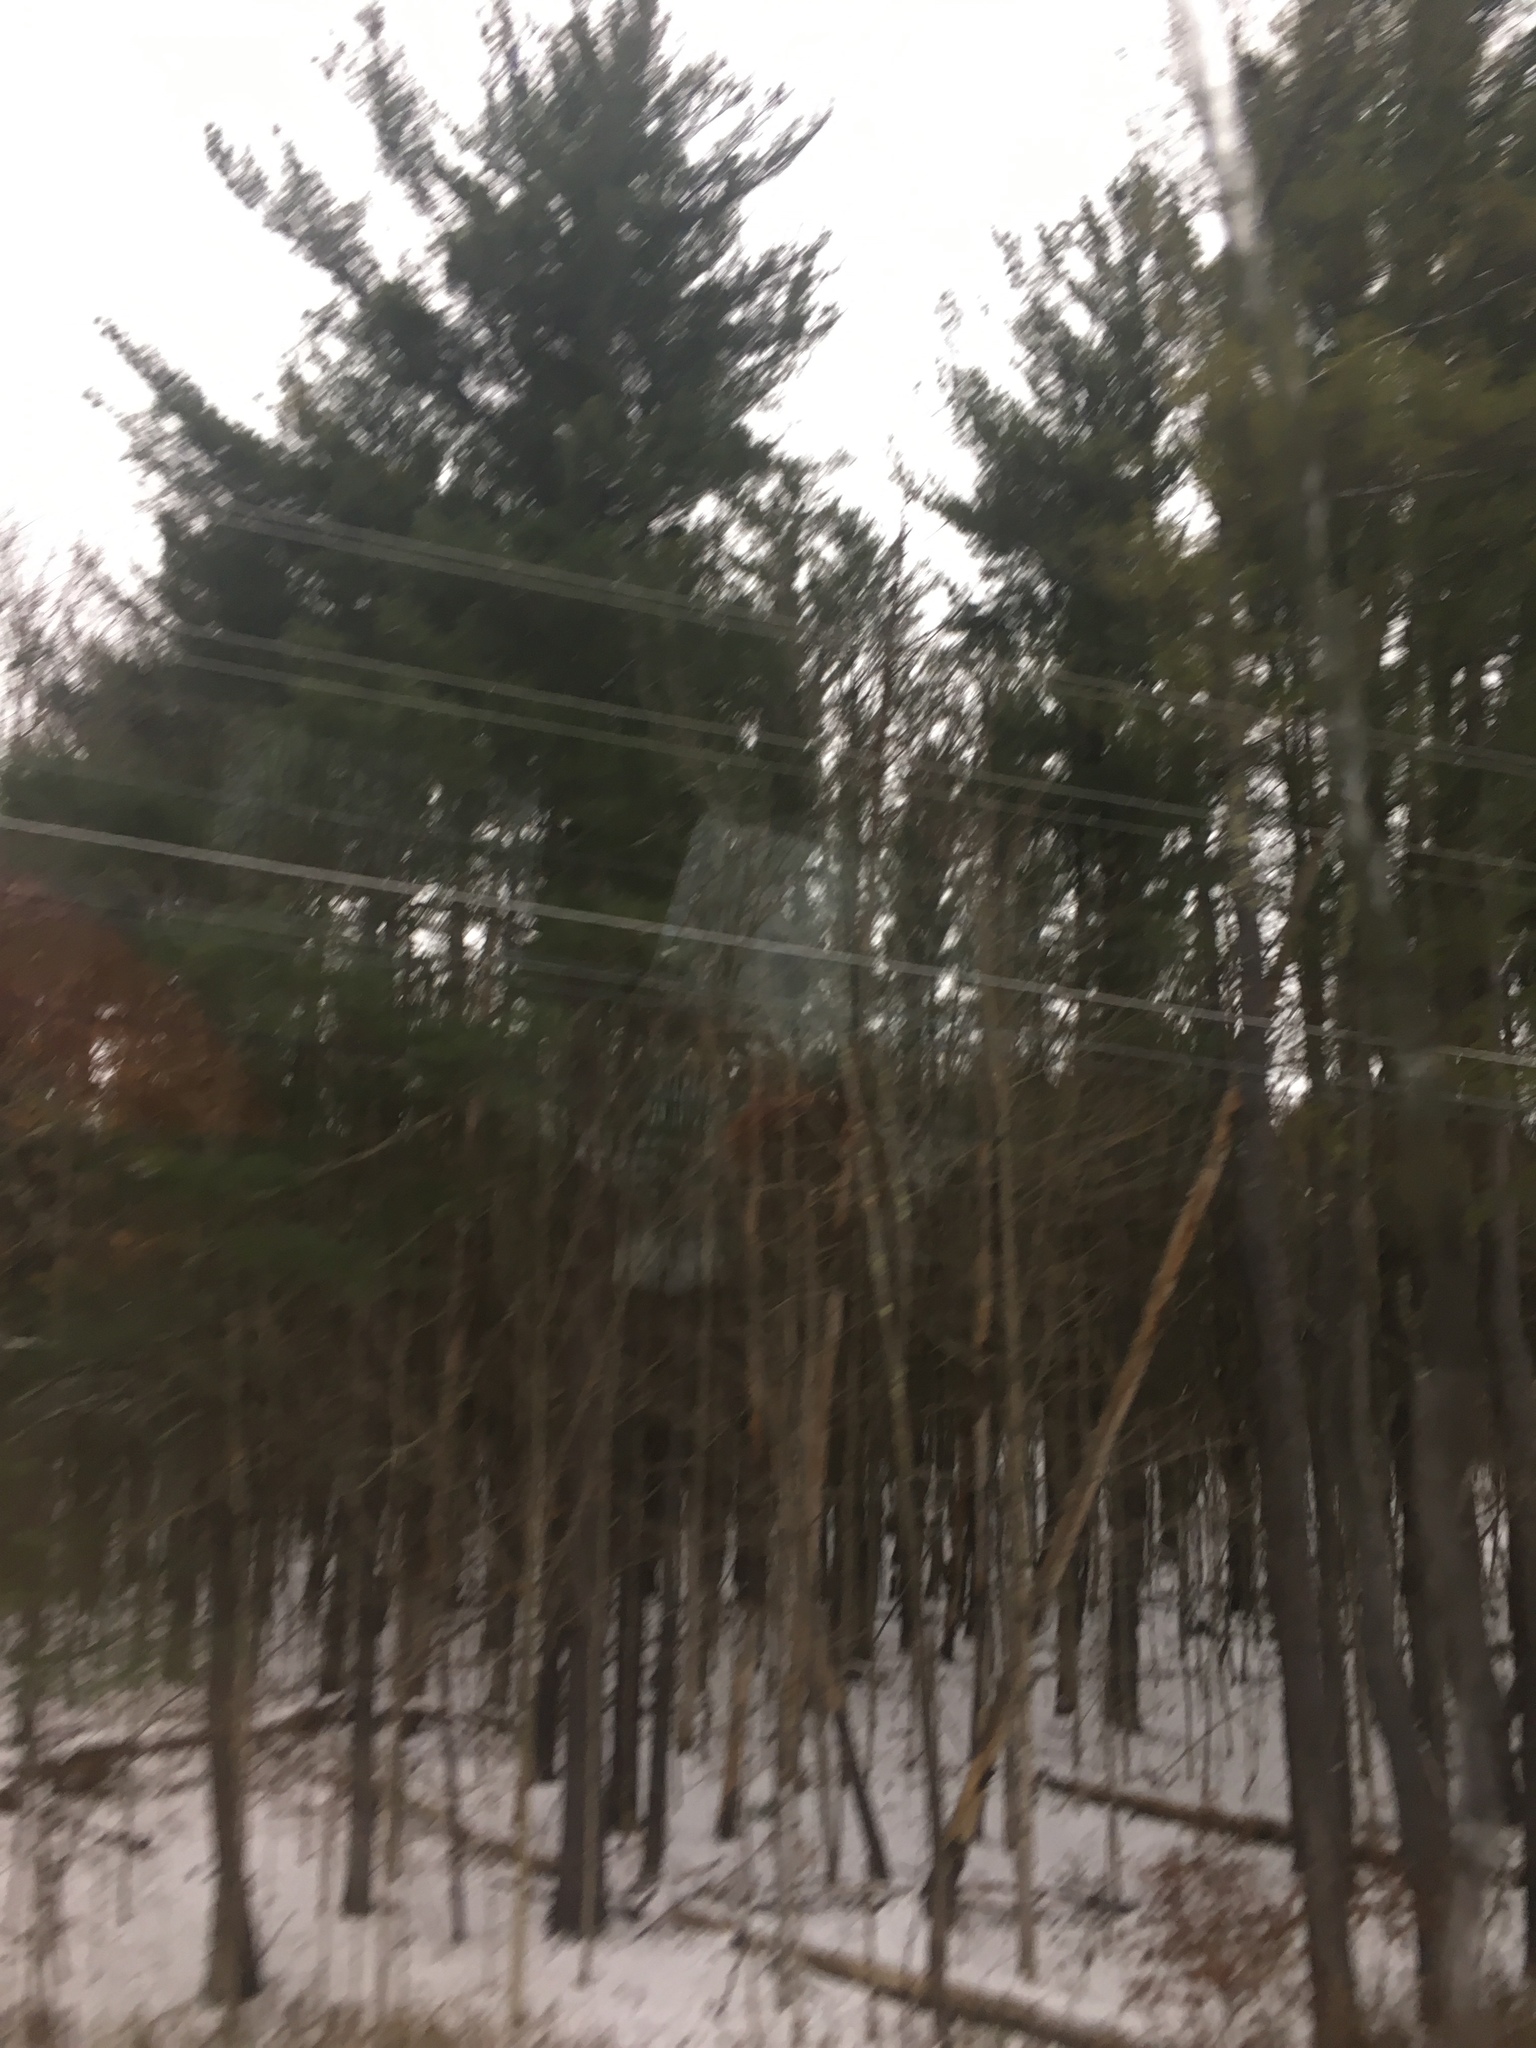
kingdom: Plantae
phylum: Tracheophyta
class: Pinopsida
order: Pinales
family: Pinaceae
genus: Pinus
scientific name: Pinus strobus
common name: Weymouth pine
